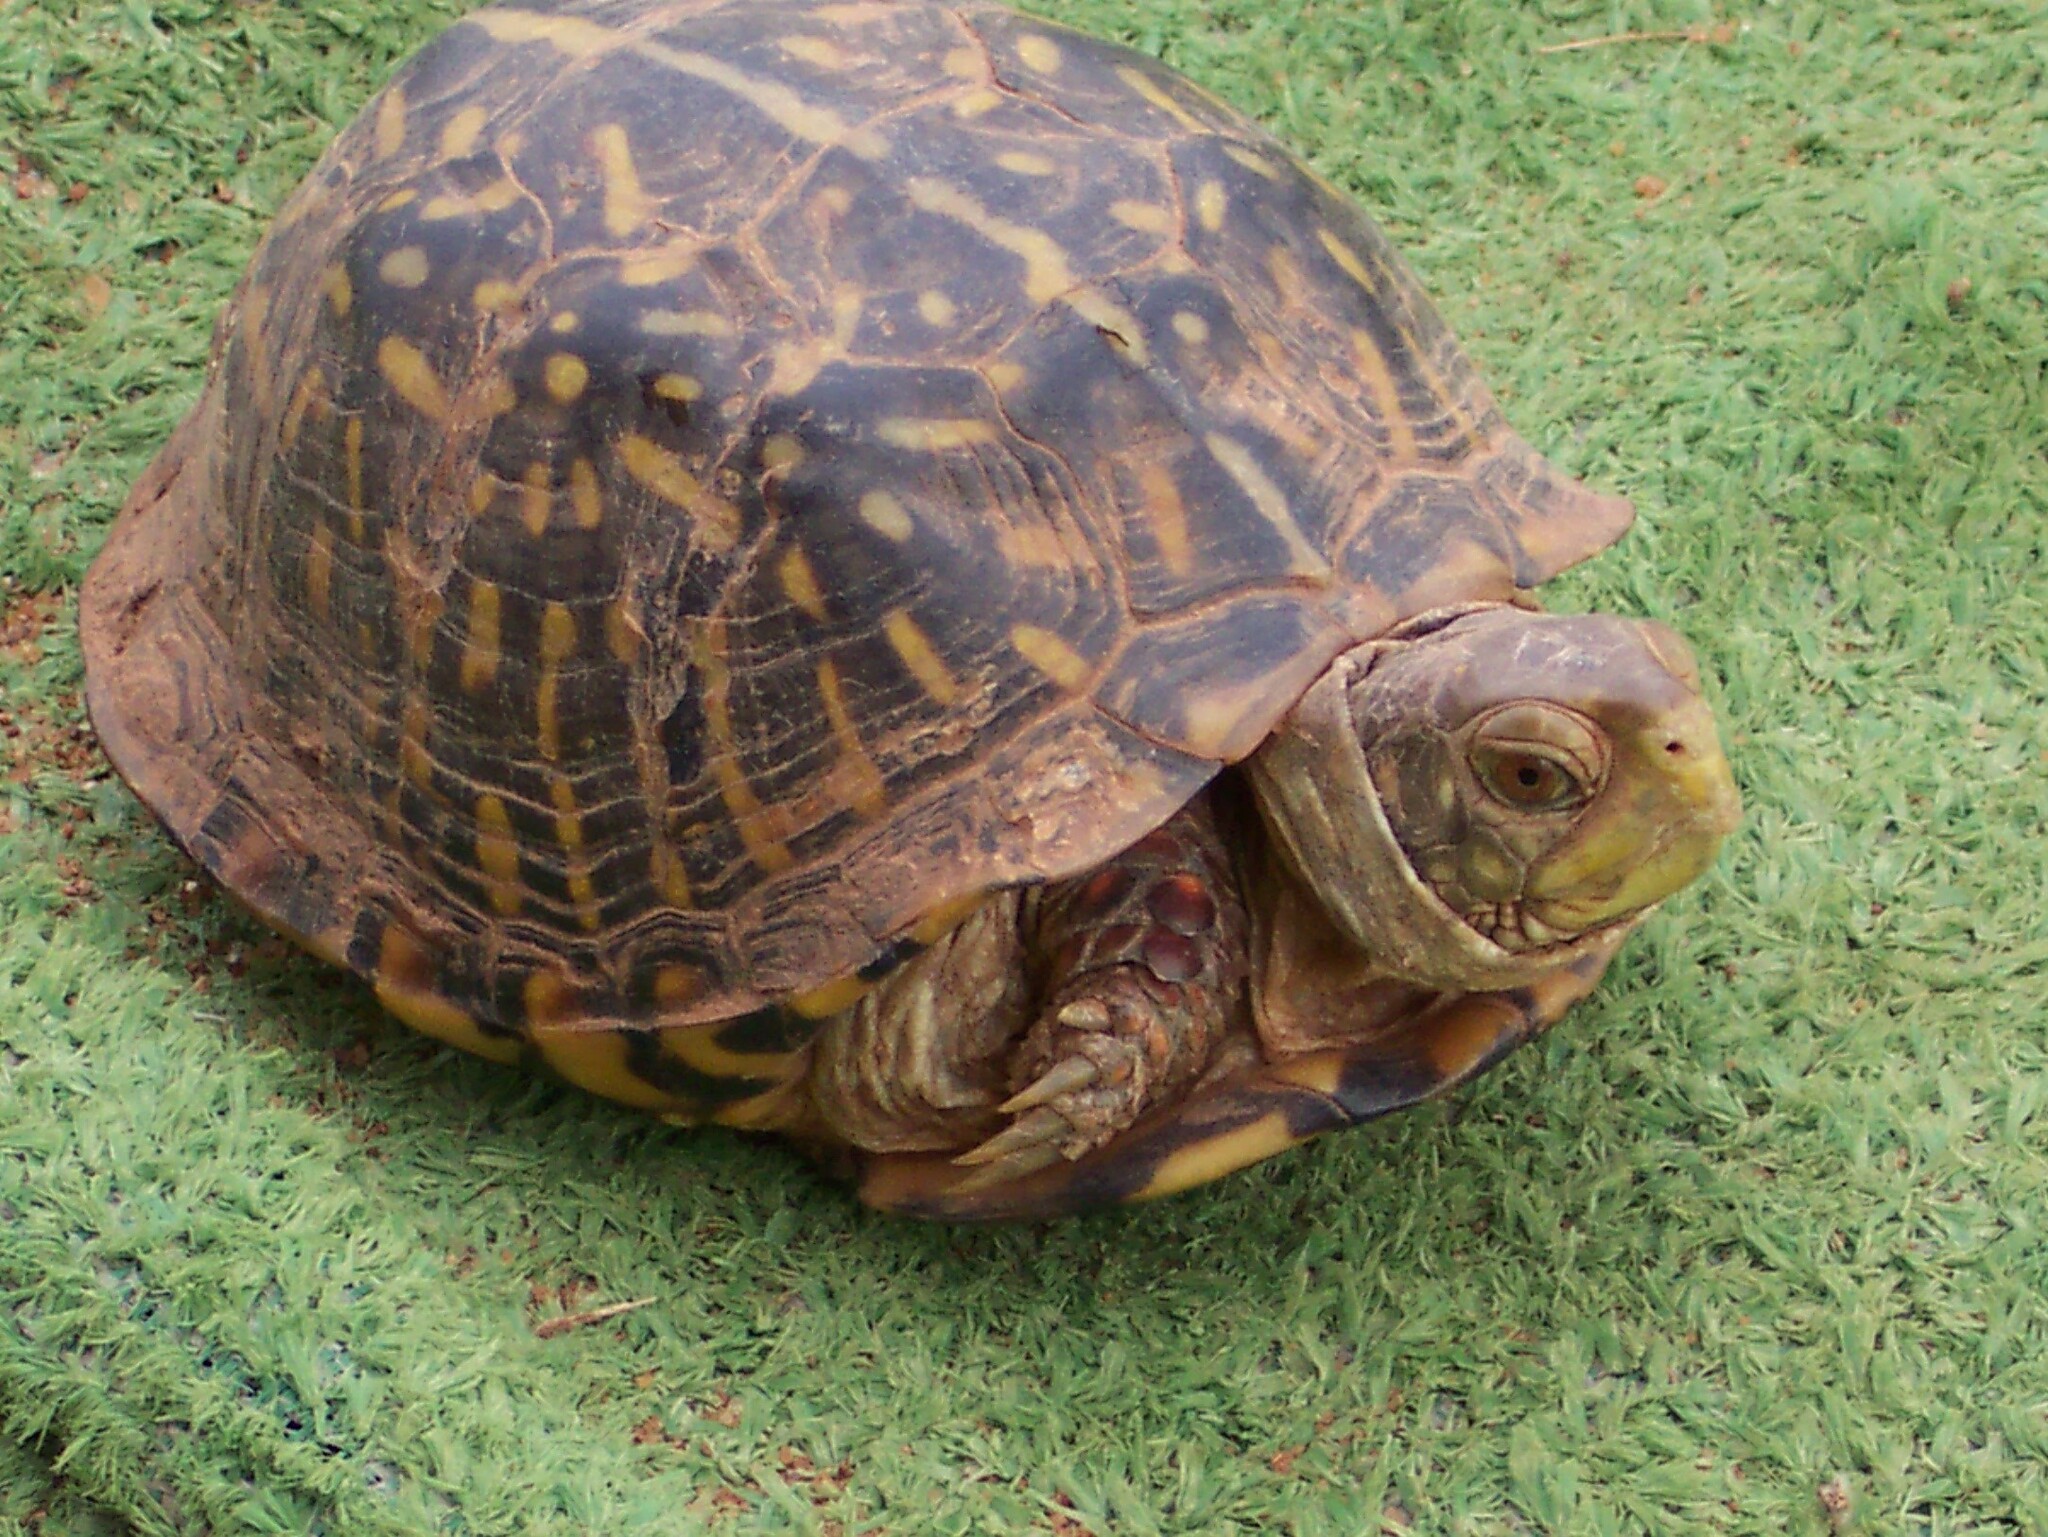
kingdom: Animalia
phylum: Chordata
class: Testudines
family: Emydidae
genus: Terrapene
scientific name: Terrapene ornata
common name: Western box turtle
